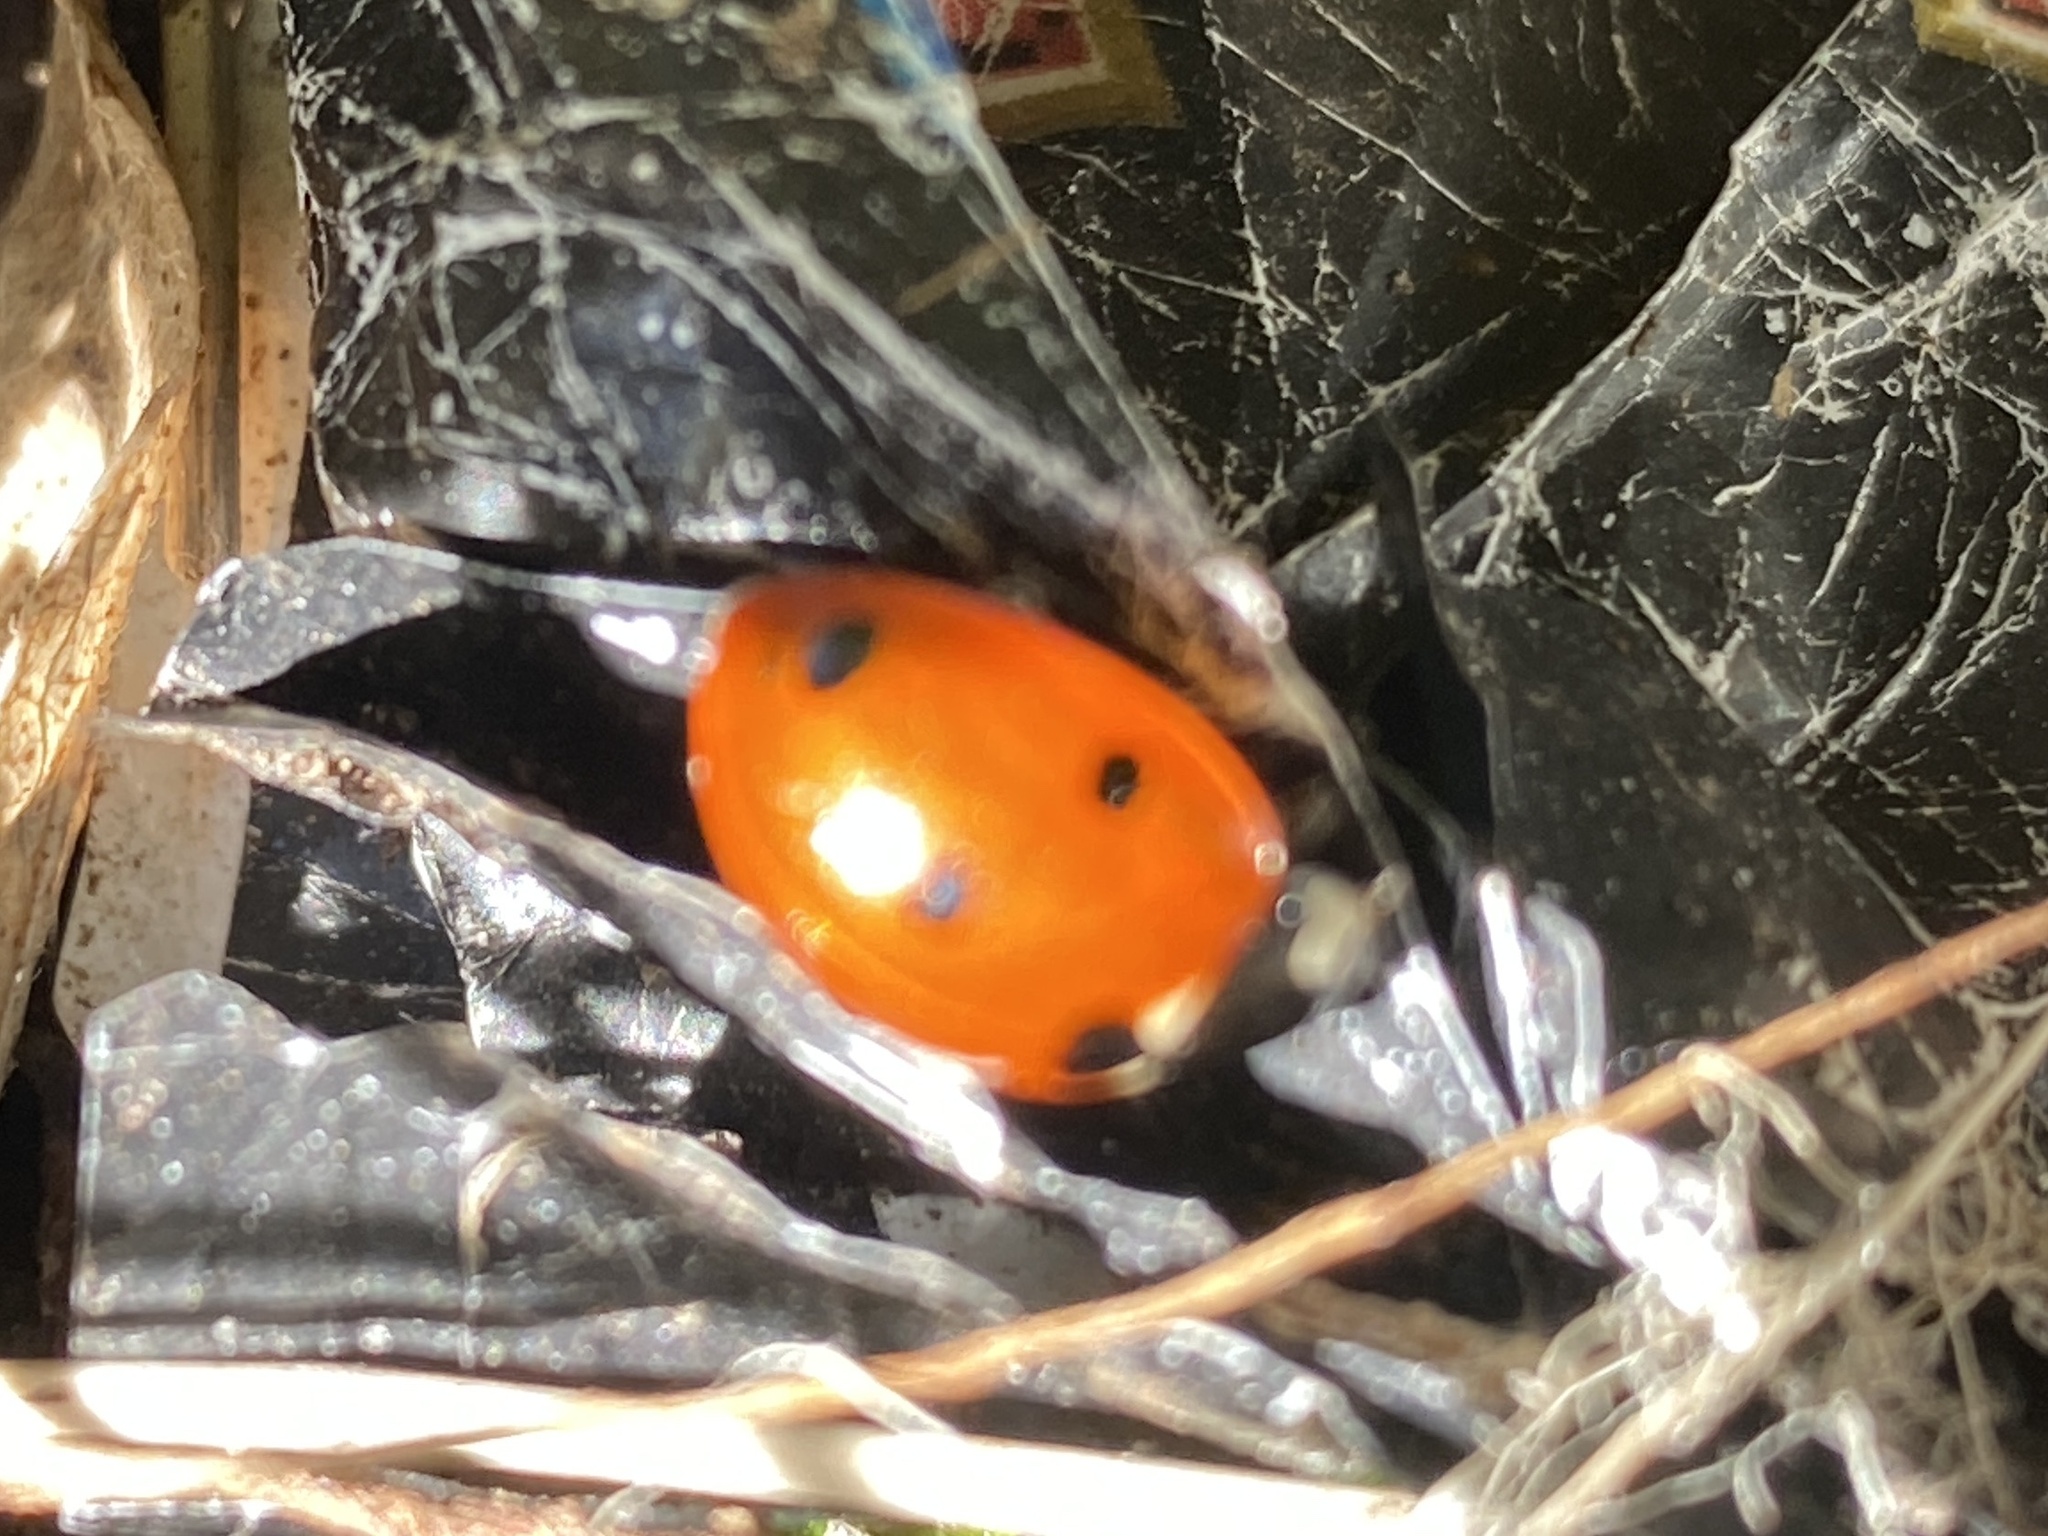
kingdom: Animalia
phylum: Arthropoda
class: Insecta
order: Coleoptera
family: Coccinellidae
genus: Coccinella
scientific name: Coccinella septempunctata
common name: Sevenspotted lady beetle
